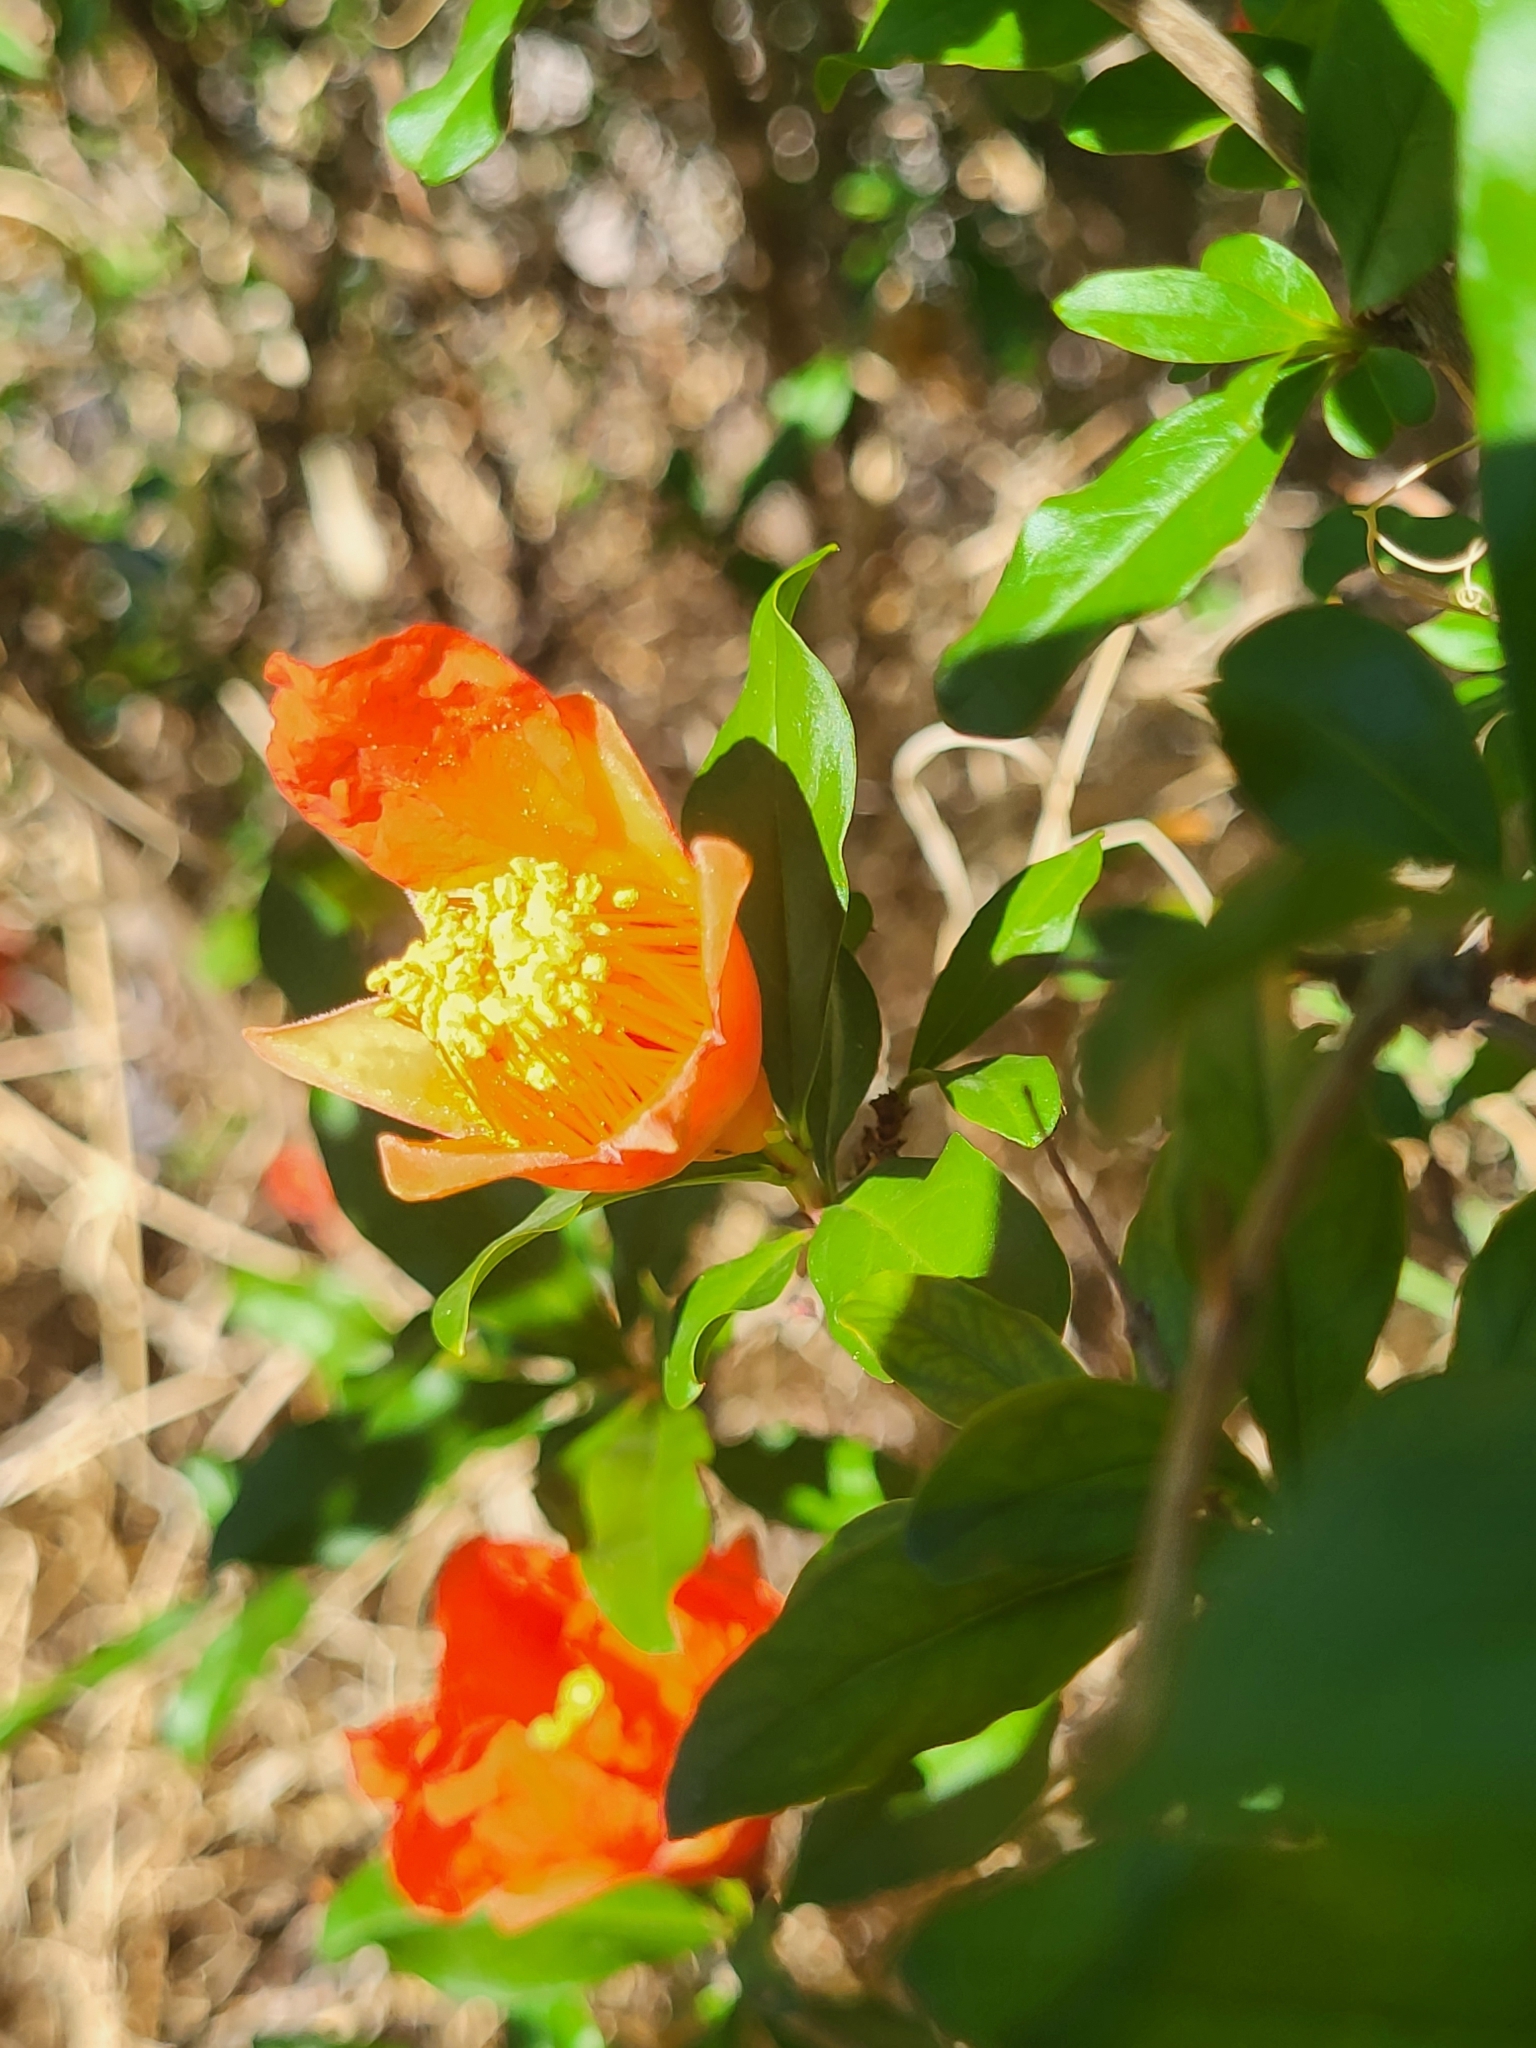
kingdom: Plantae
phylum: Tracheophyta
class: Magnoliopsida
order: Myrtales
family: Lythraceae
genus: Punica
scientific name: Punica granatum
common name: Pomegranate
